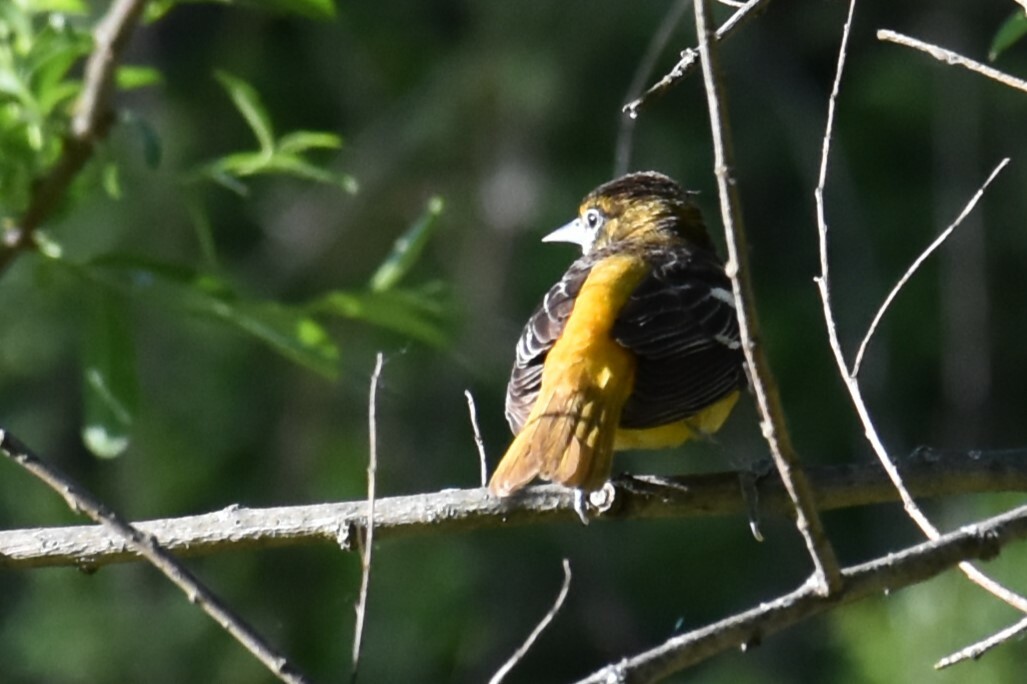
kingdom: Animalia
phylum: Chordata
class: Aves
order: Passeriformes
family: Icteridae
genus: Icterus
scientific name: Icterus galbula
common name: Baltimore oriole
